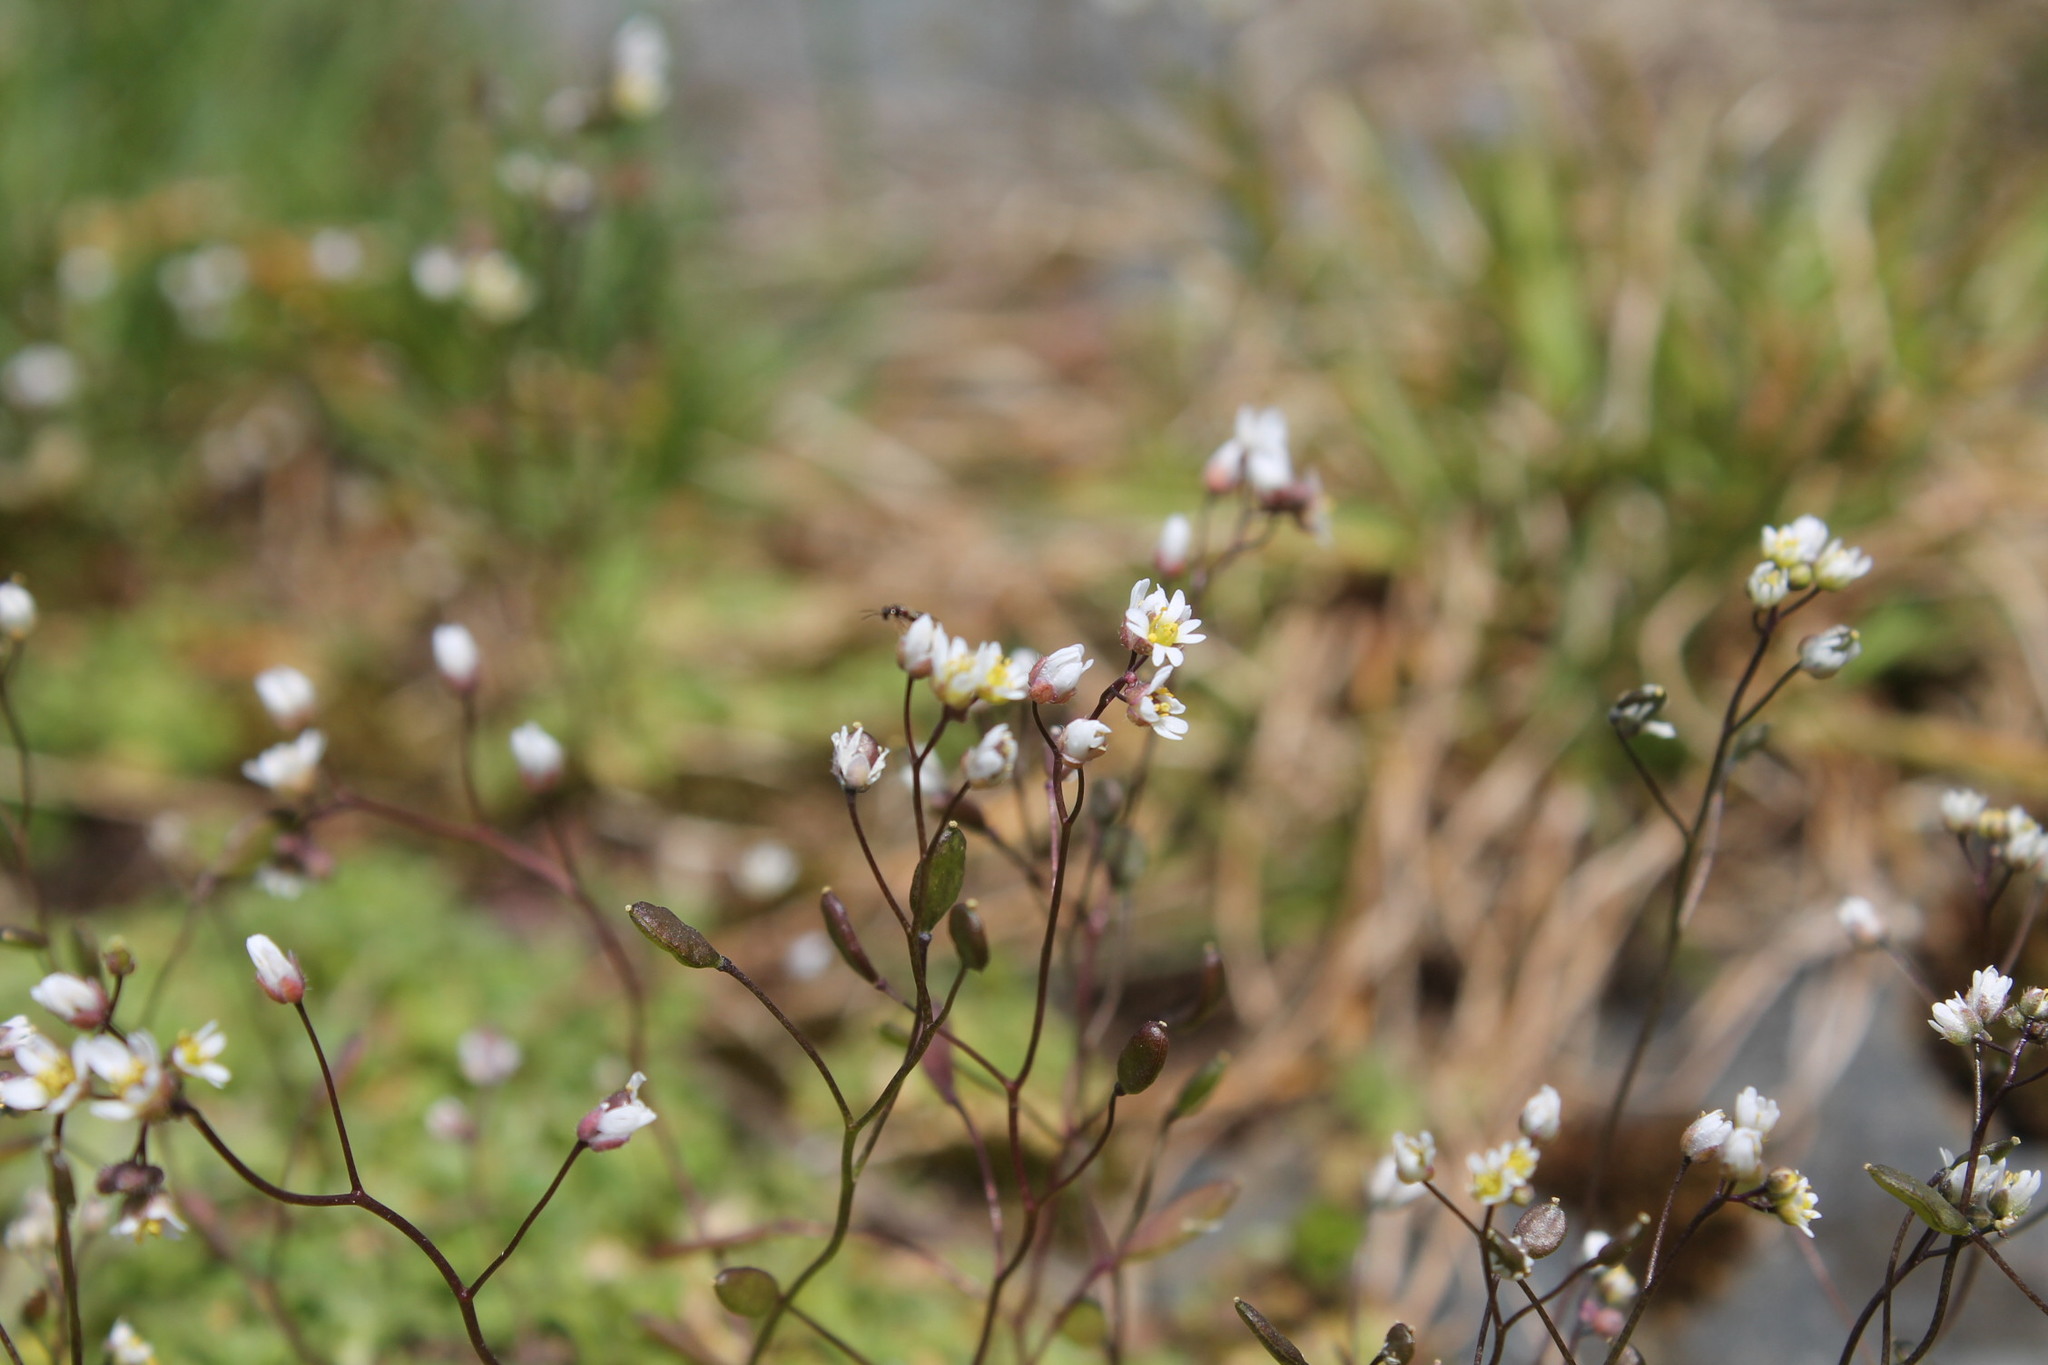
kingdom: Plantae
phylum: Tracheophyta
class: Magnoliopsida
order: Brassicales
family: Brassicaceae
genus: Draba
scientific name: Draba verna
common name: Spring draba
